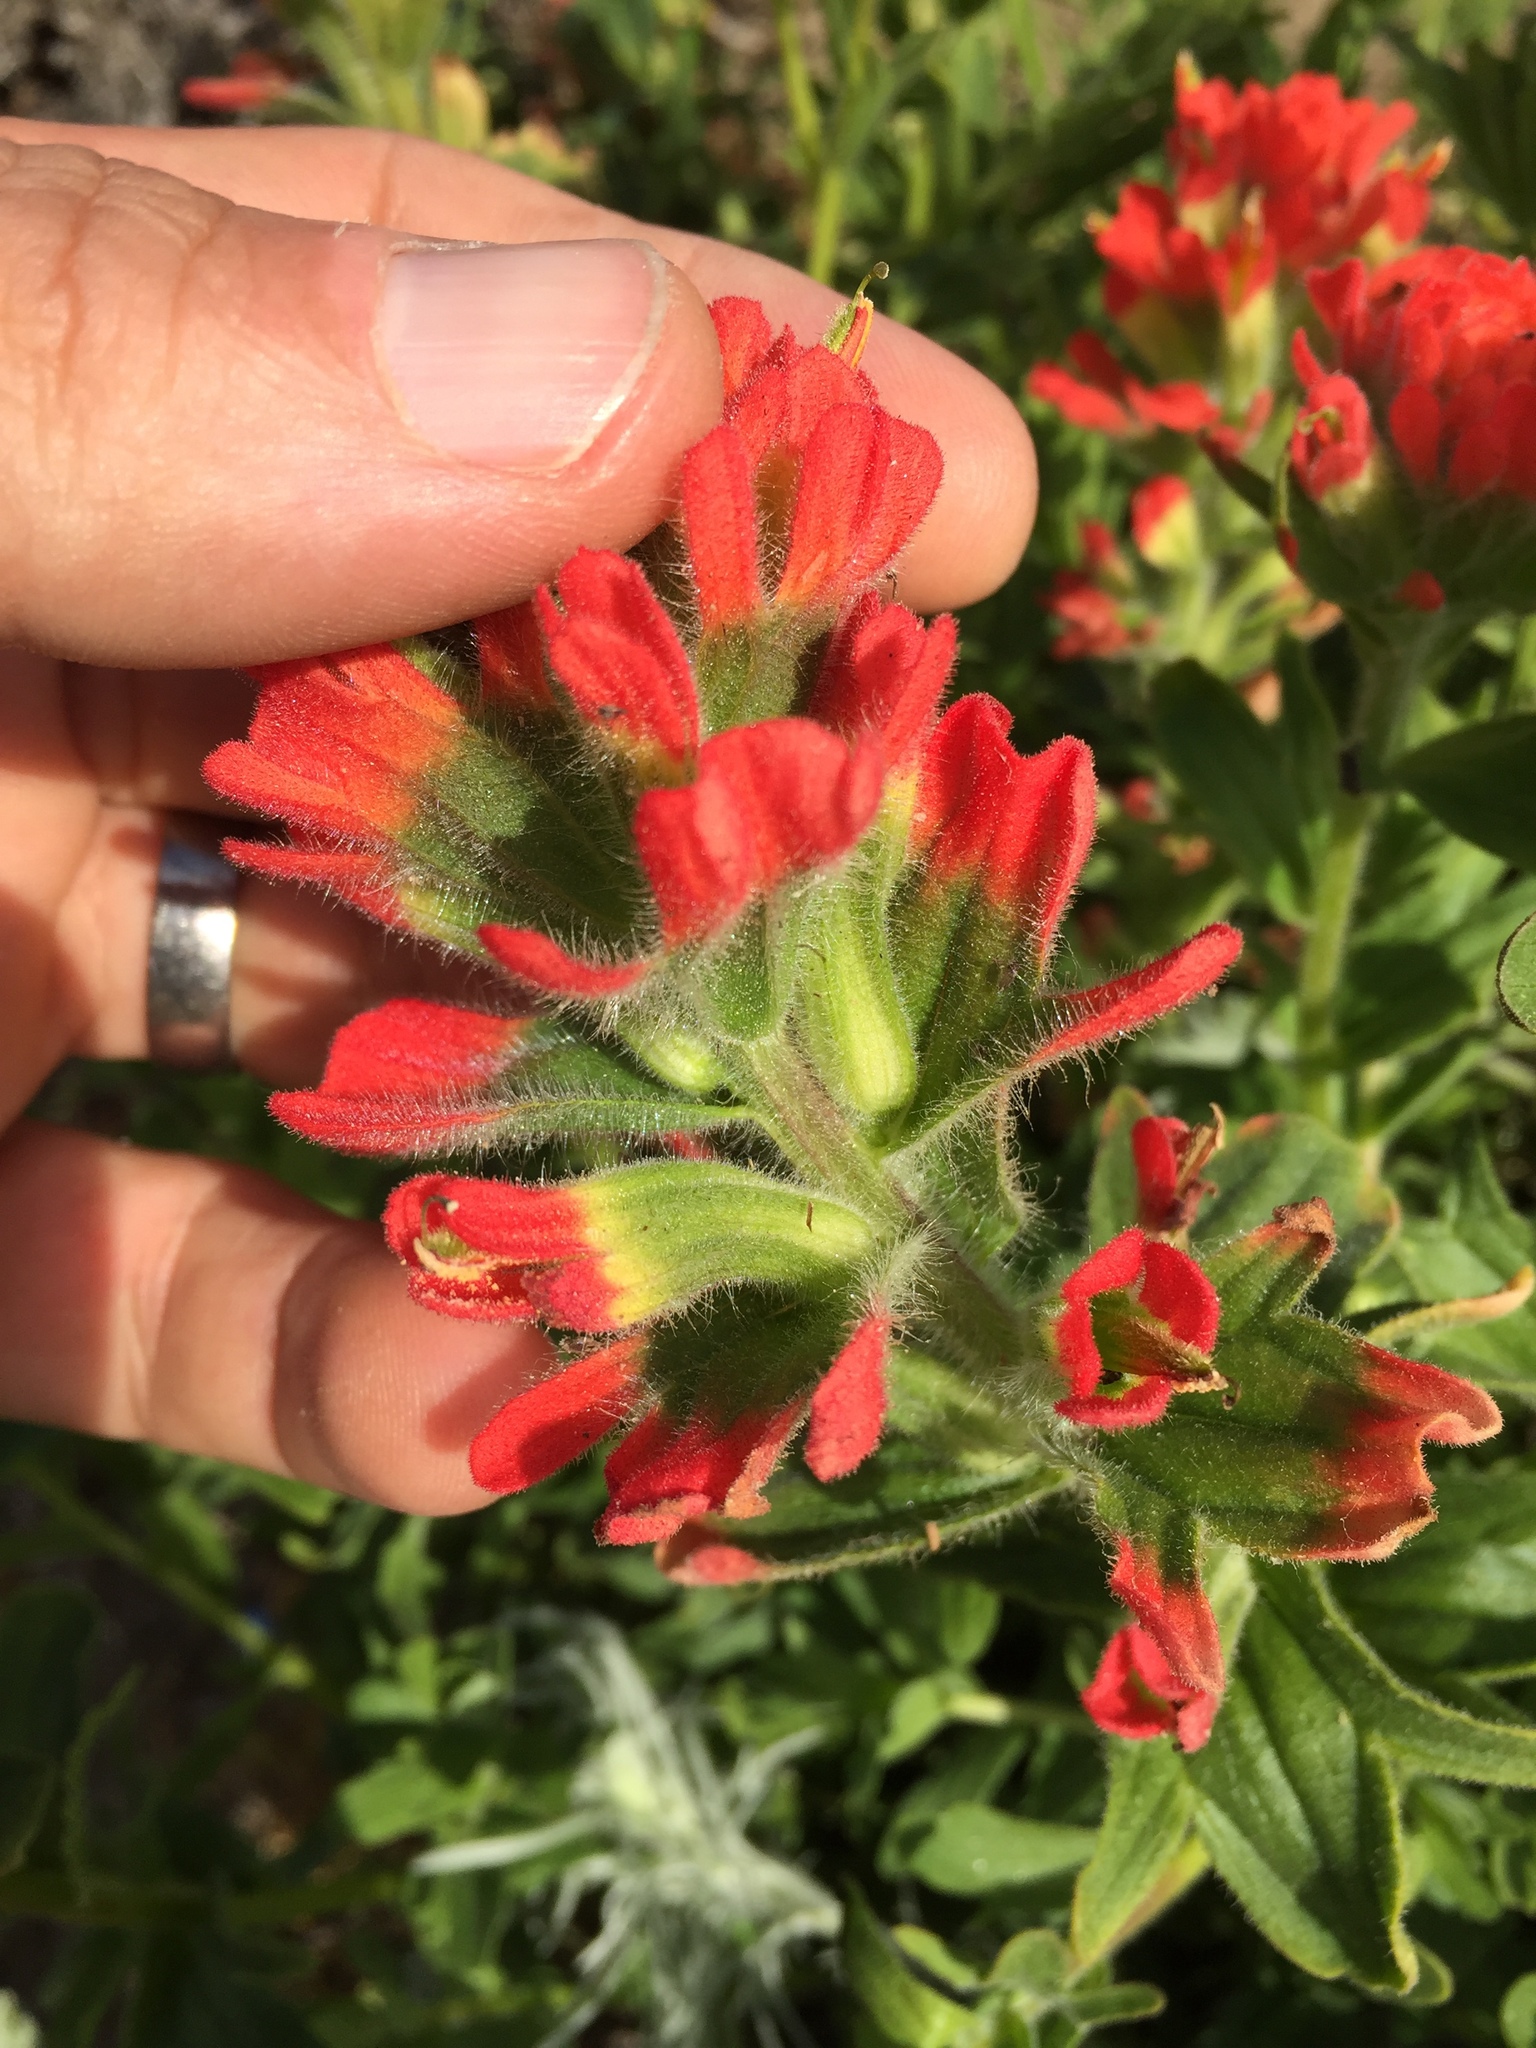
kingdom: Plantae
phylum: Tracheophyta
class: Magnoliopsida
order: Lamiales
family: Orobanchaceae
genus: Castilleja
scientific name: Castilleja affinis
